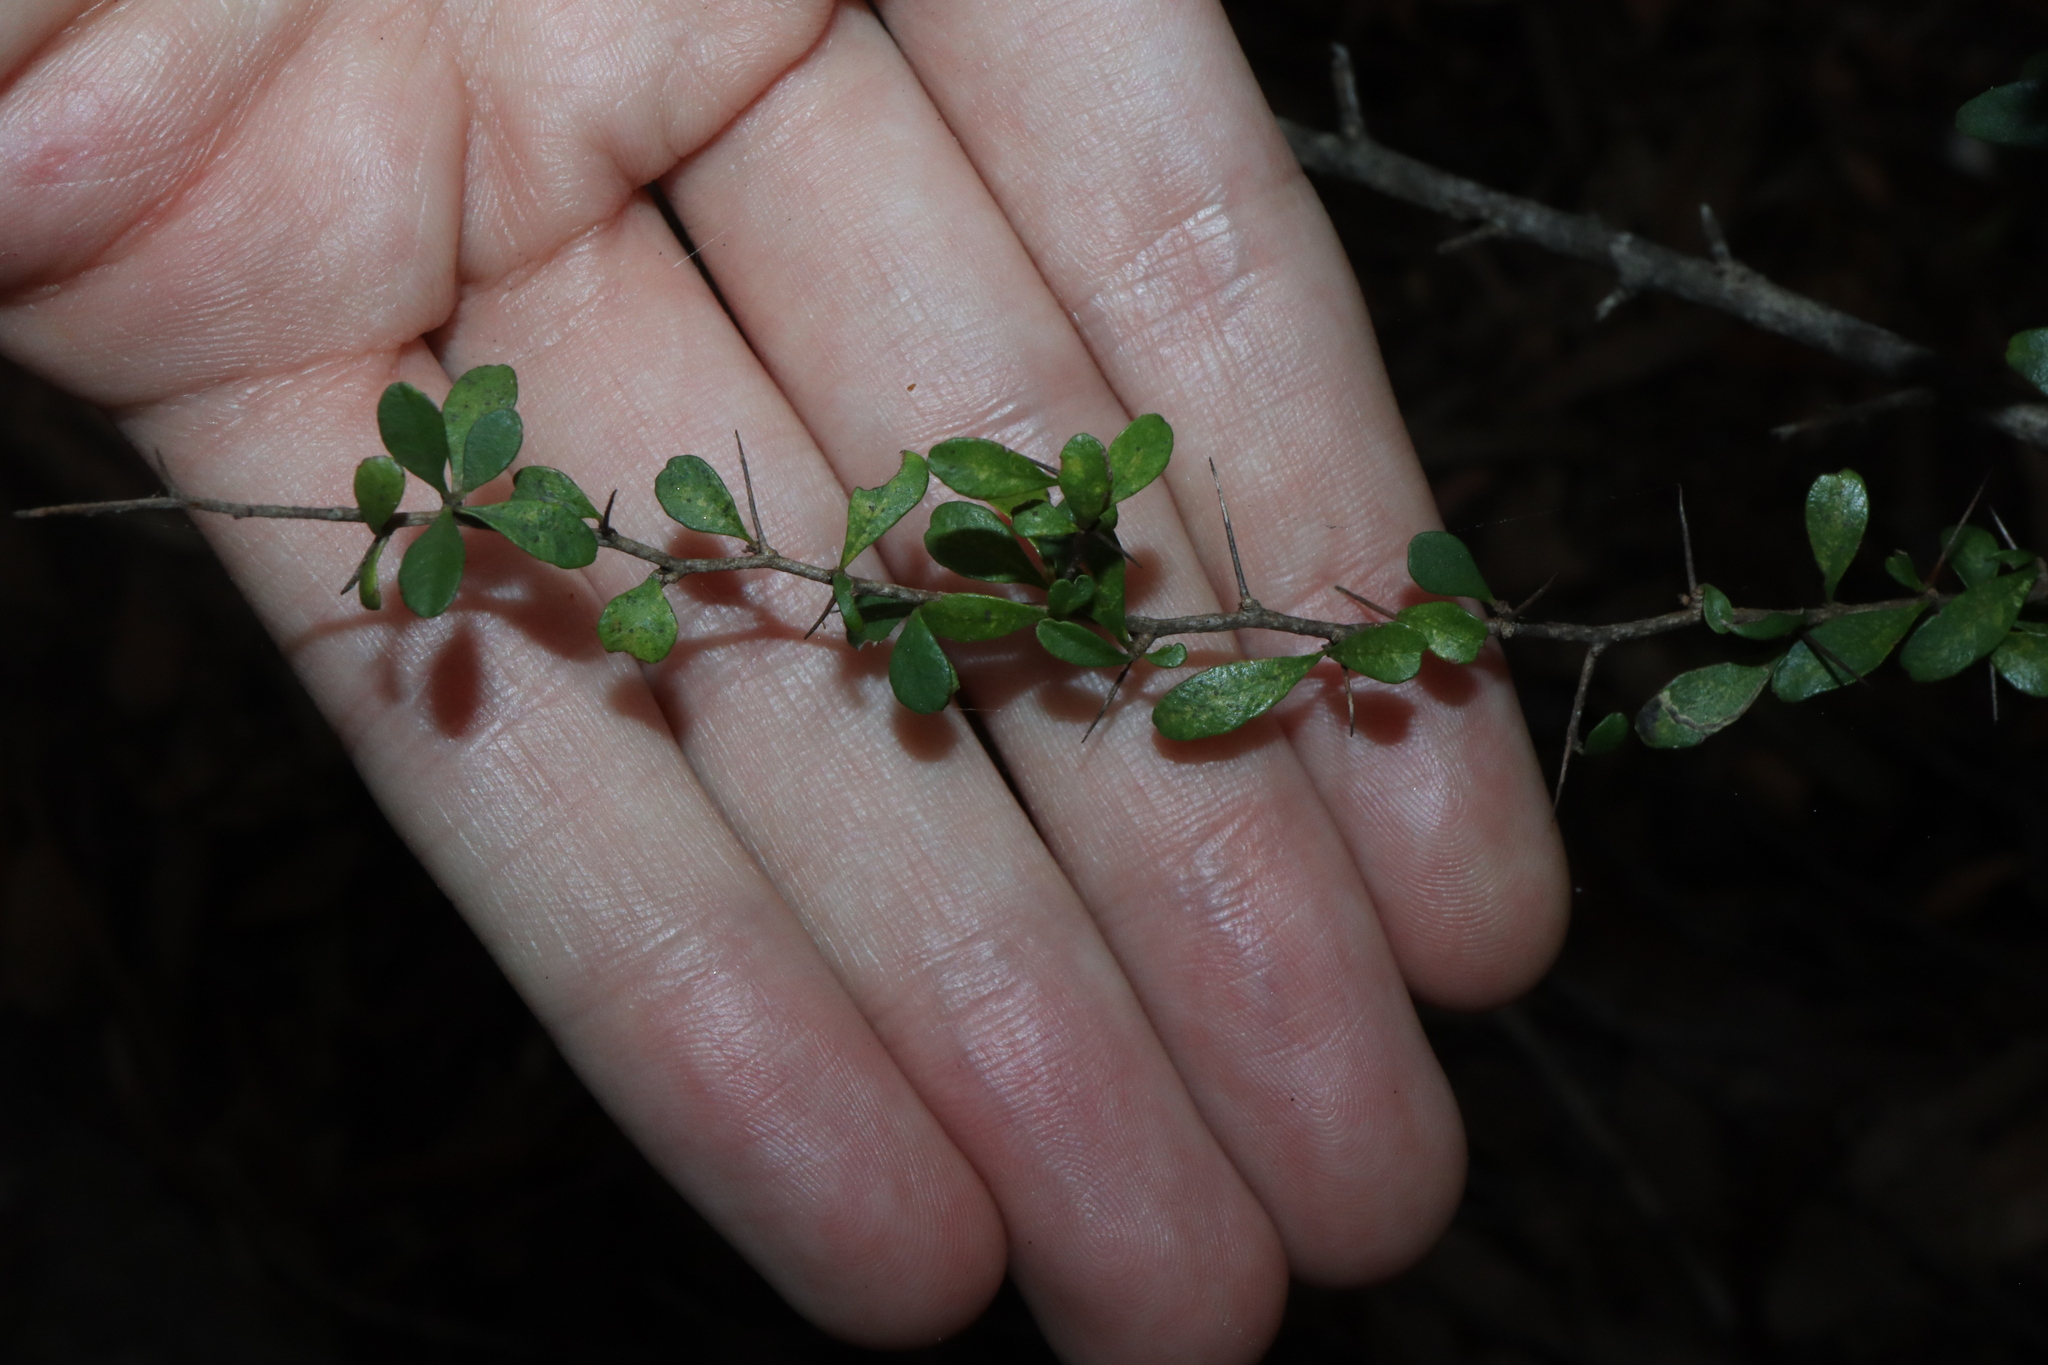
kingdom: Plantae
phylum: Tracheophyta
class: Magnoliopsida
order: Apiales
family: Pittosporaceae
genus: Bursaria
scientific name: Bursaria spinosa
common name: Australian blackthorn
